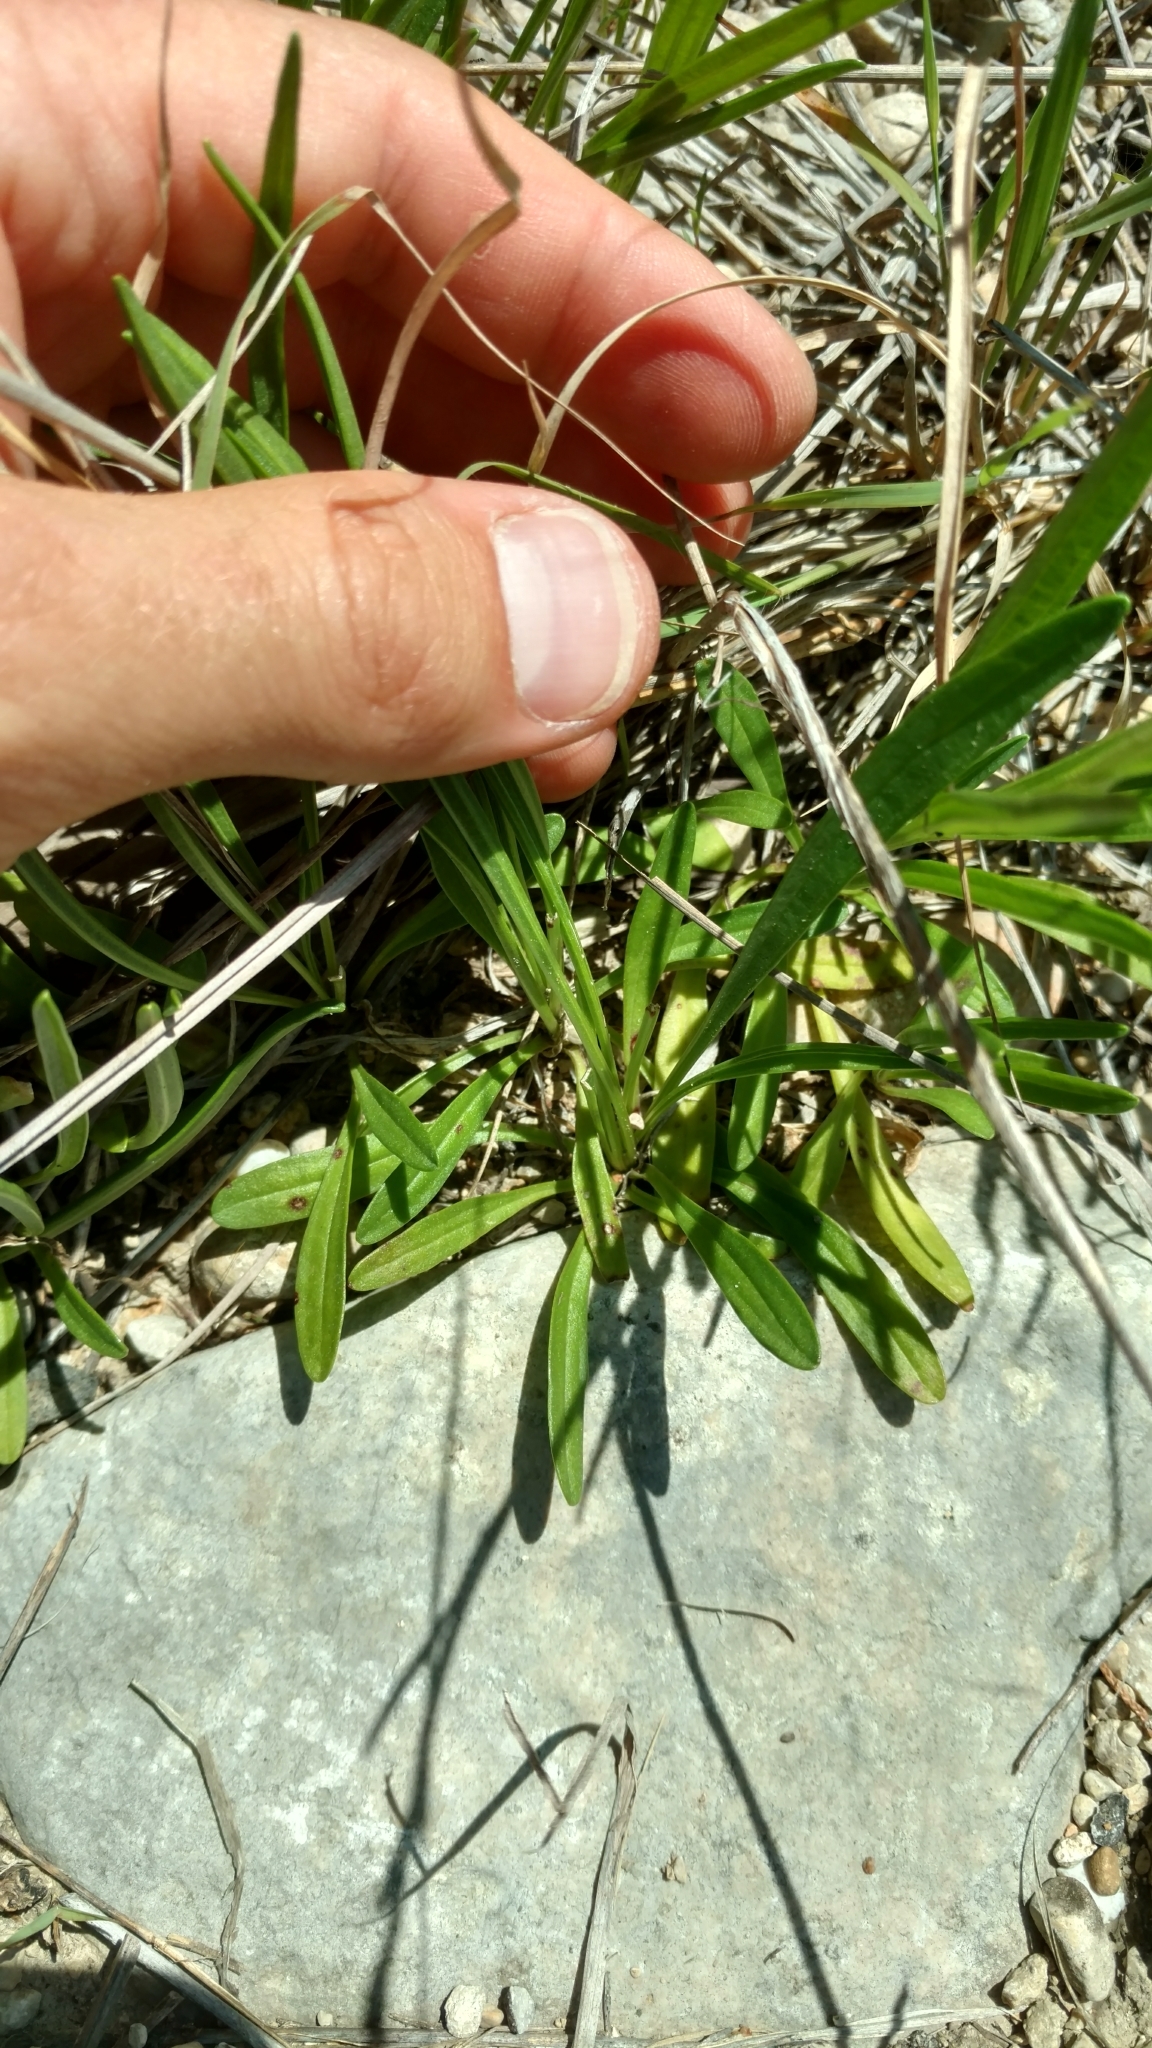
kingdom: Plantae
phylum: Tracheophyta
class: Magnoliopsida
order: Asterales
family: Asteraceae
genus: Marshallia
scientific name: Marshallia caespitosa
